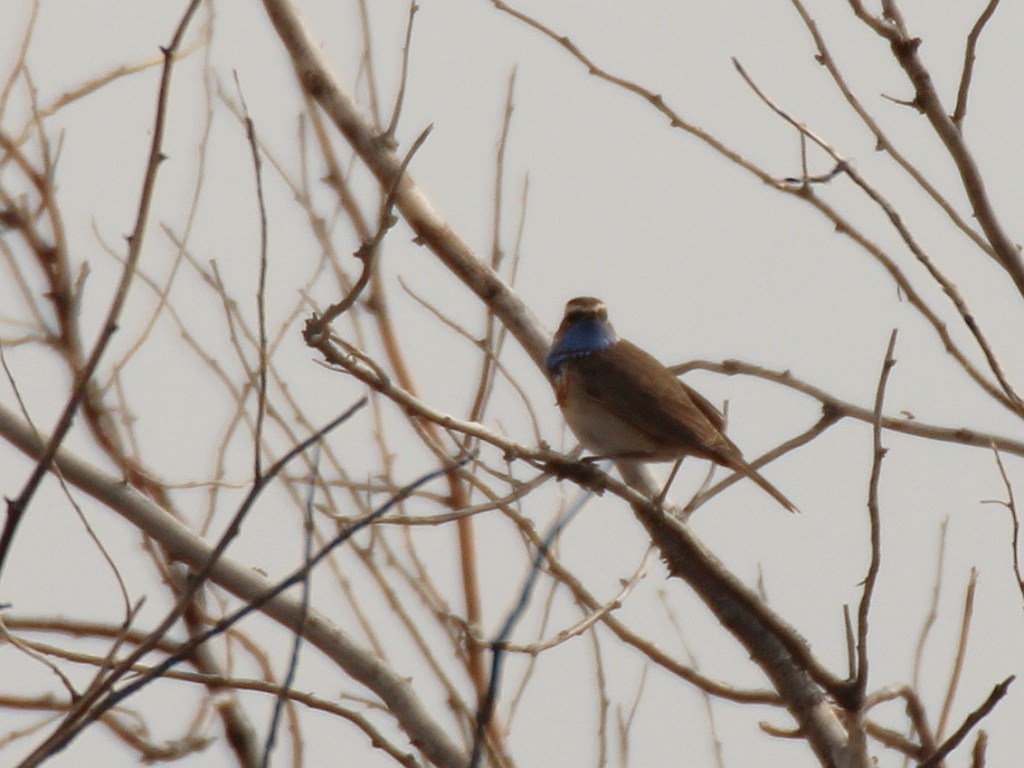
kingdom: Animalia
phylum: Chordata
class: Aves
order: Passeriformes
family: Muscicapidae
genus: Luscinia
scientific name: Luscinia svecica
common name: Bluethroat
